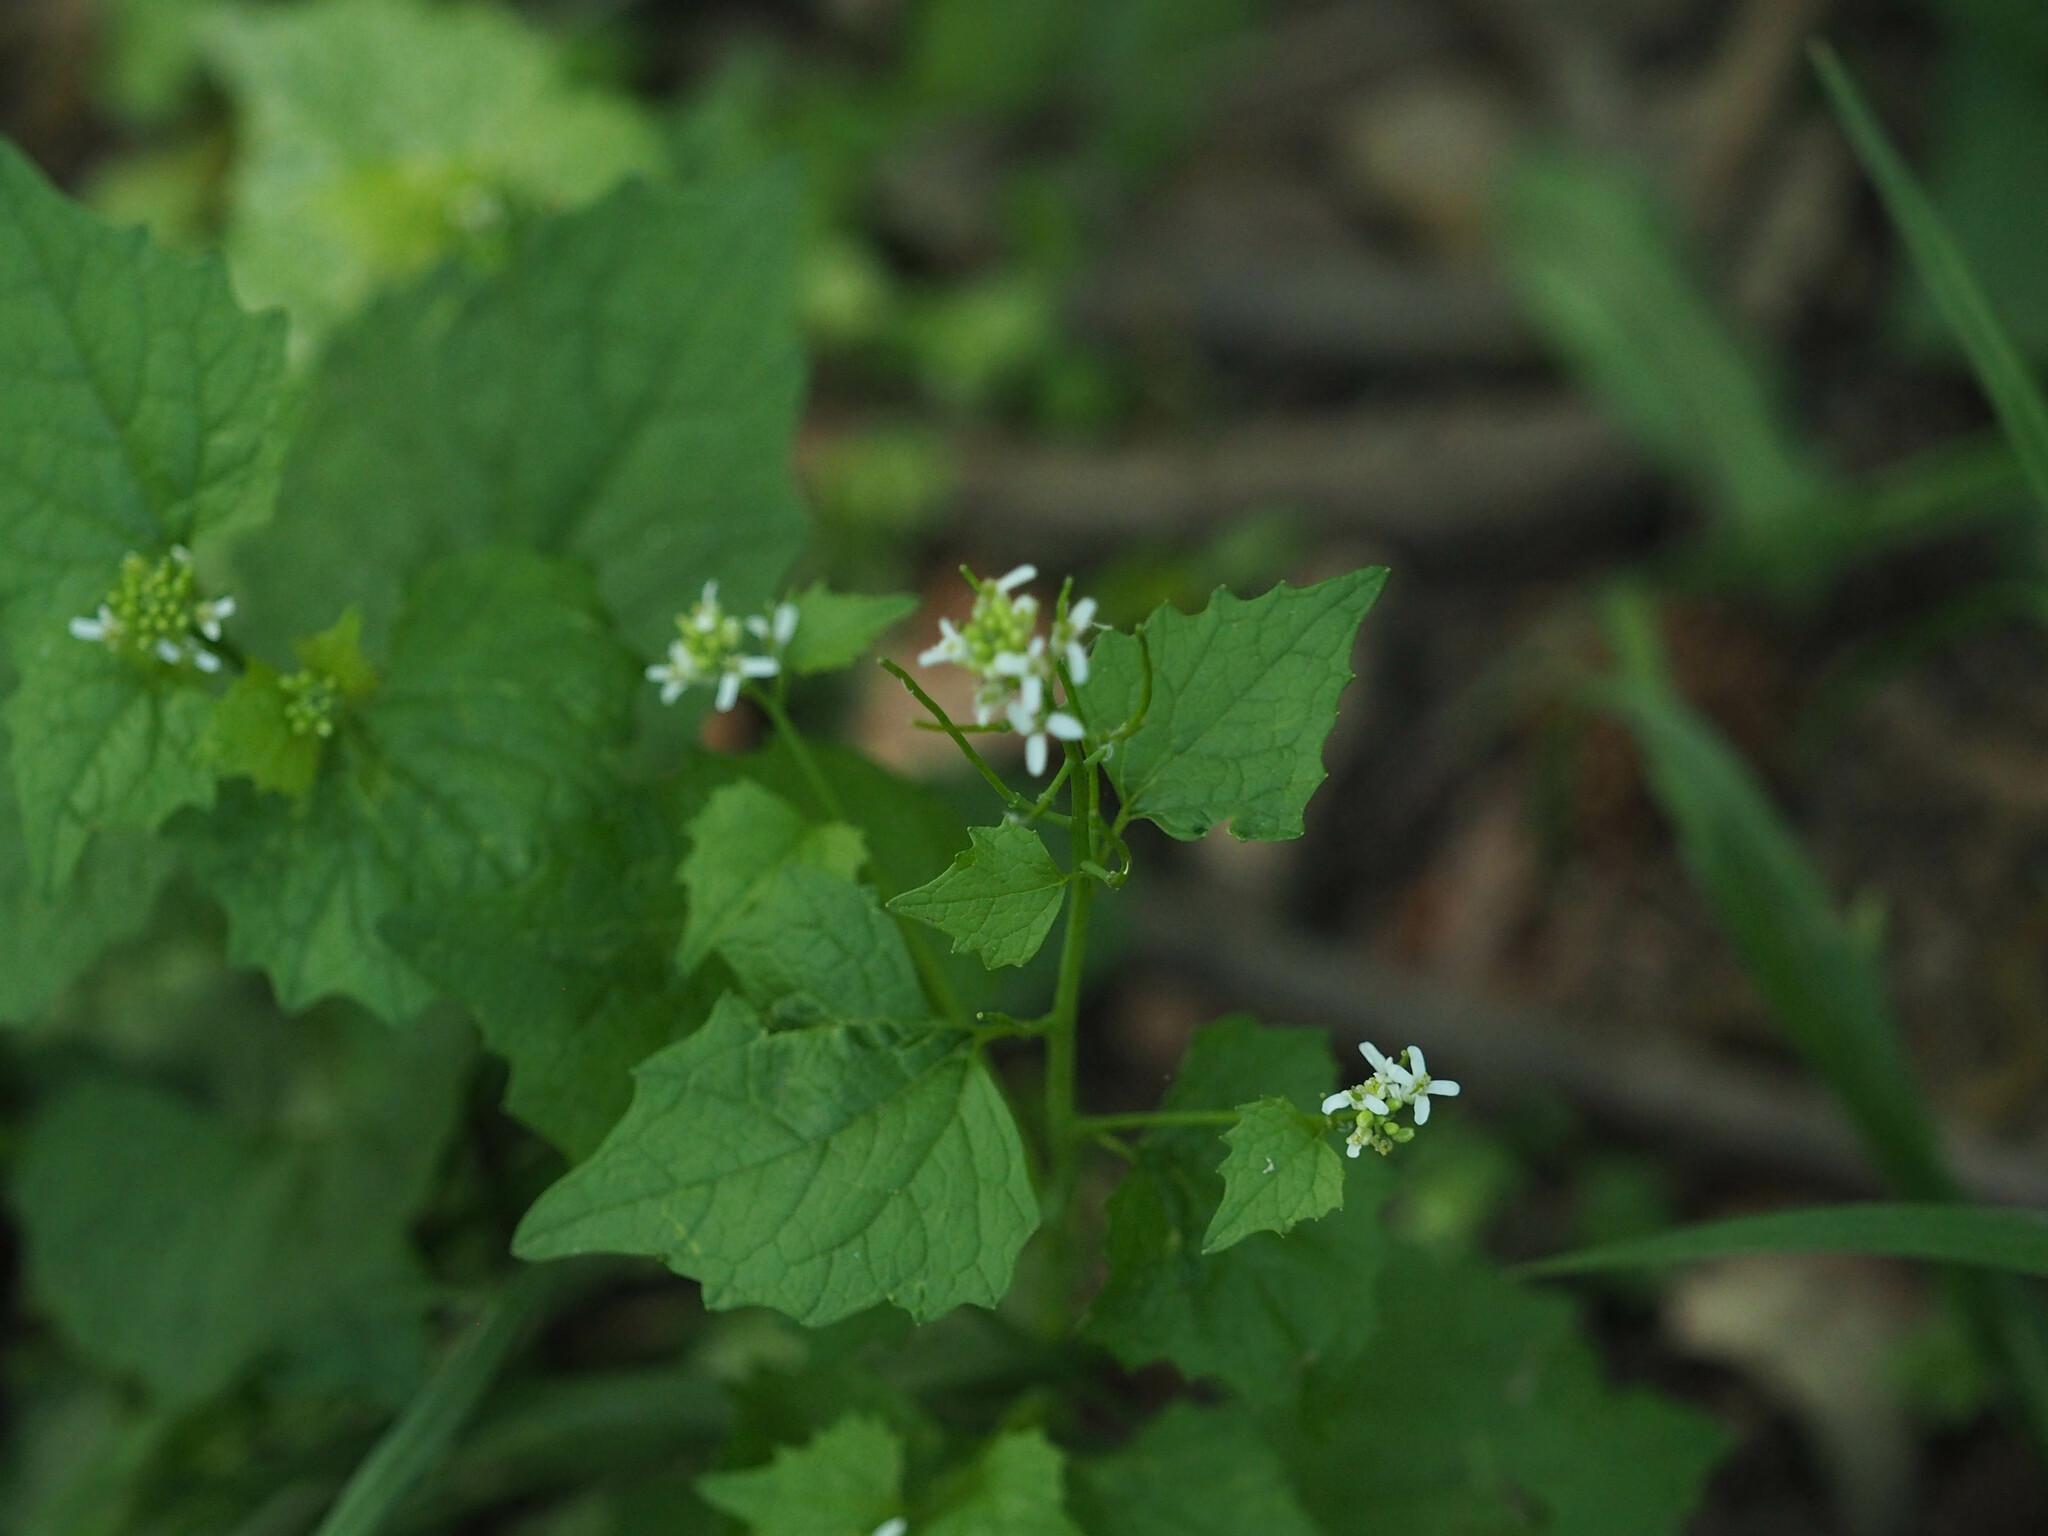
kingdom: Plantae
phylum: Tracheophyta
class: Magnoliopsida
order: Brassicales
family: Brassicaceae
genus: Alliaria
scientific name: Alliaria petiolata
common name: Garlic mustard
